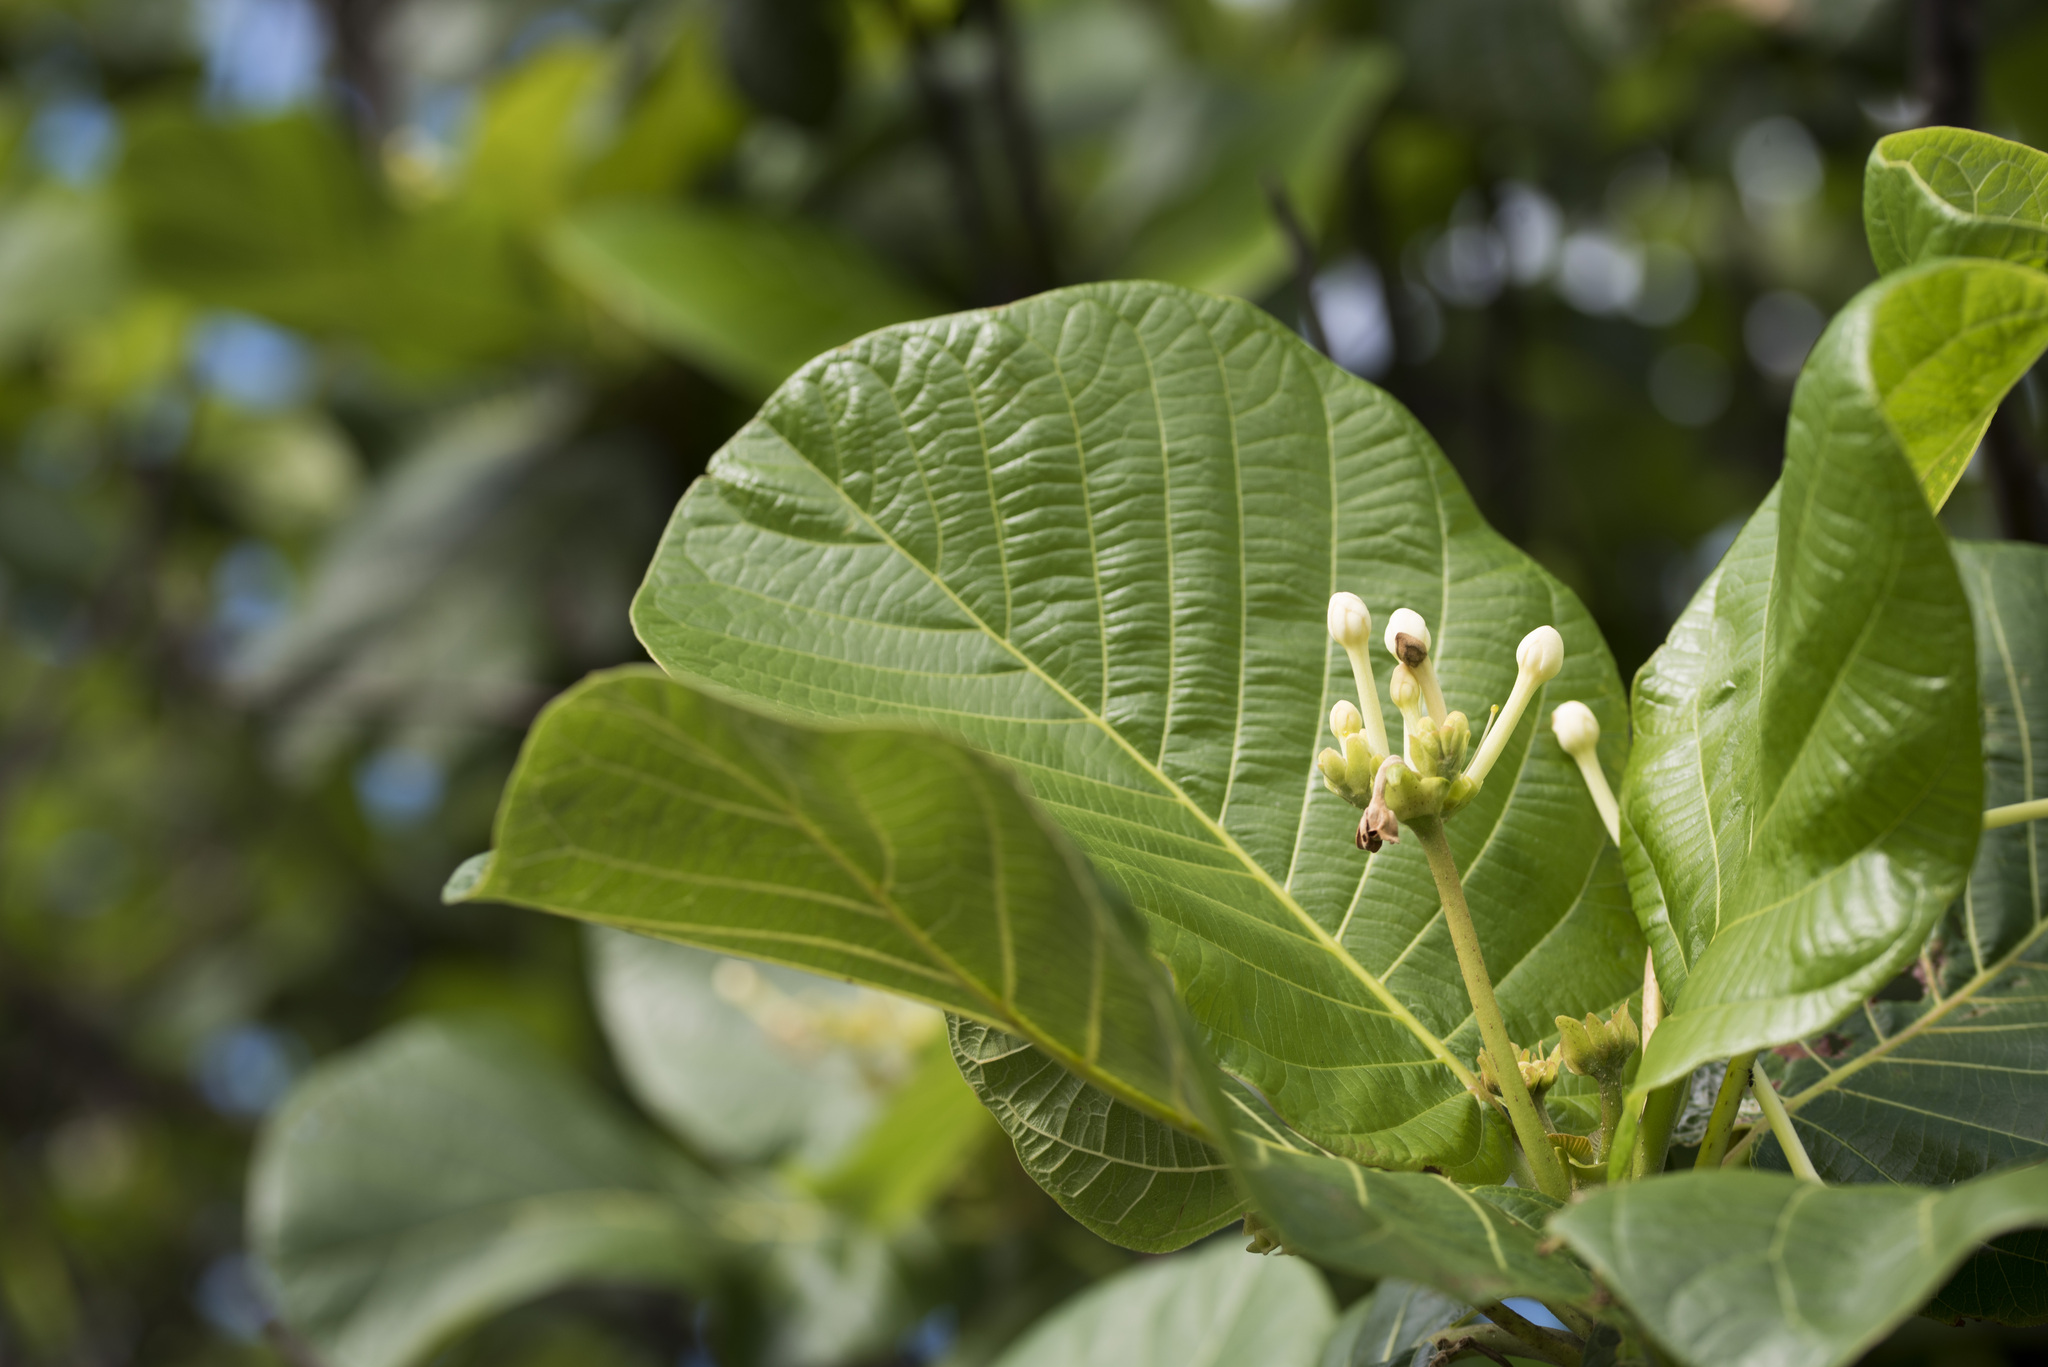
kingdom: Plantae
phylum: Tracheophyta
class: Magnoliopsida
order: Gentianales
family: Rubiaceae
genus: Guettarda
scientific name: Guettarda speciosa
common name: Sea randa
